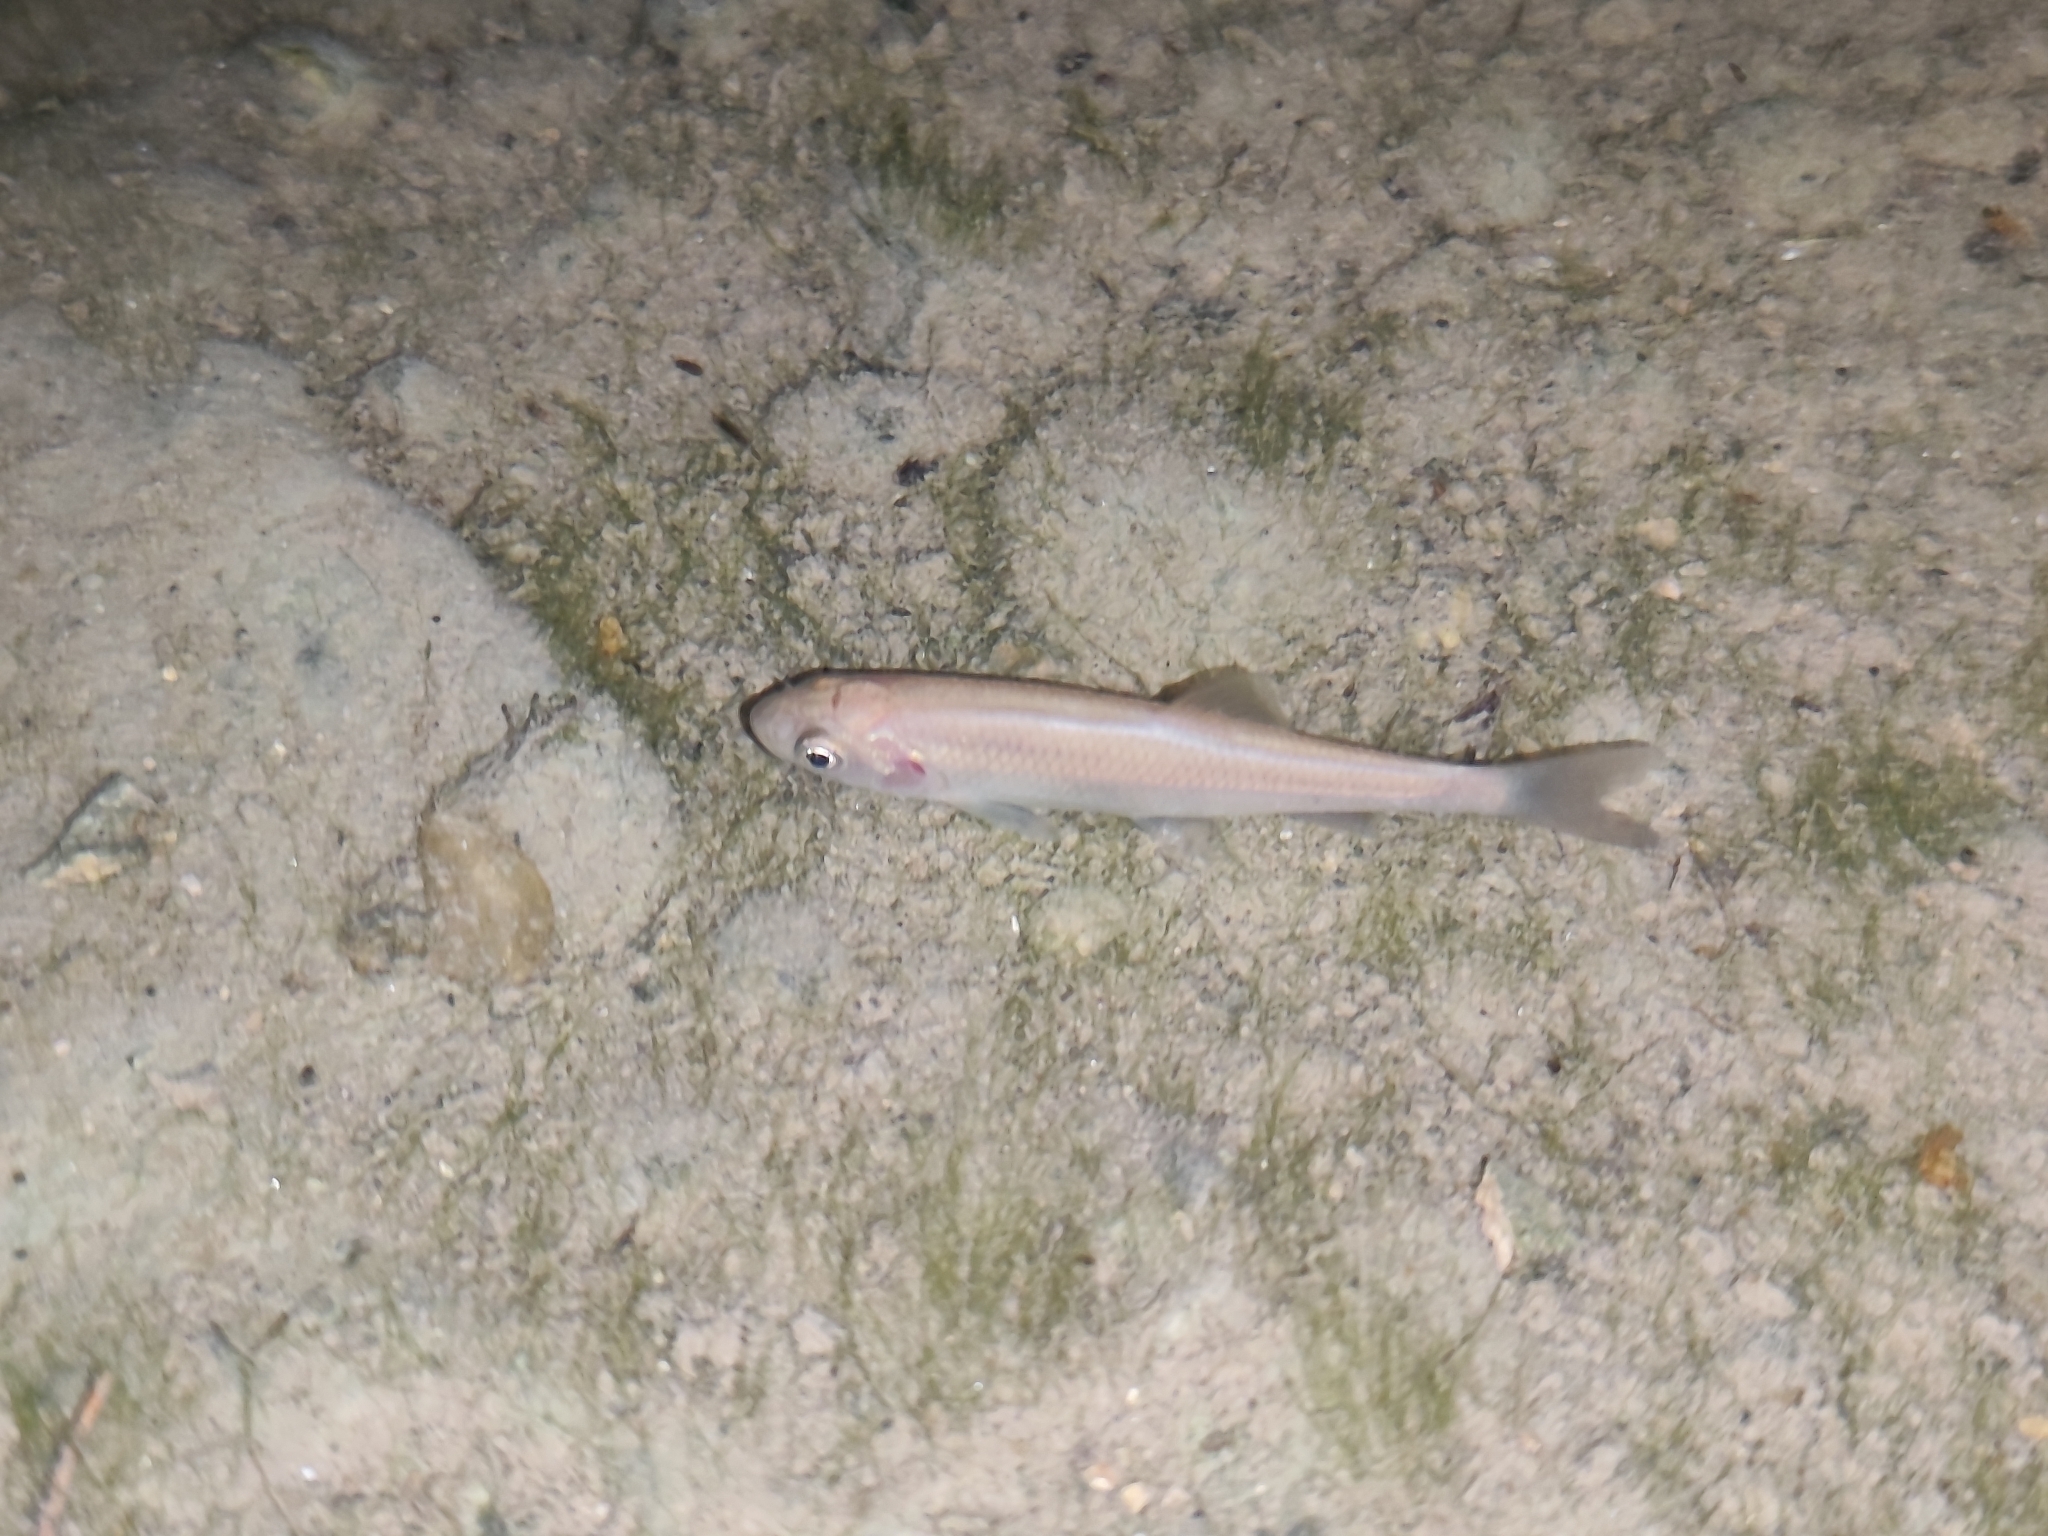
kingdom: Animalia
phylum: Chordata
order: Cypriniformes
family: Cyprinidae
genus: Alburnus
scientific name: Alburnus alburnus
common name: Bleak
